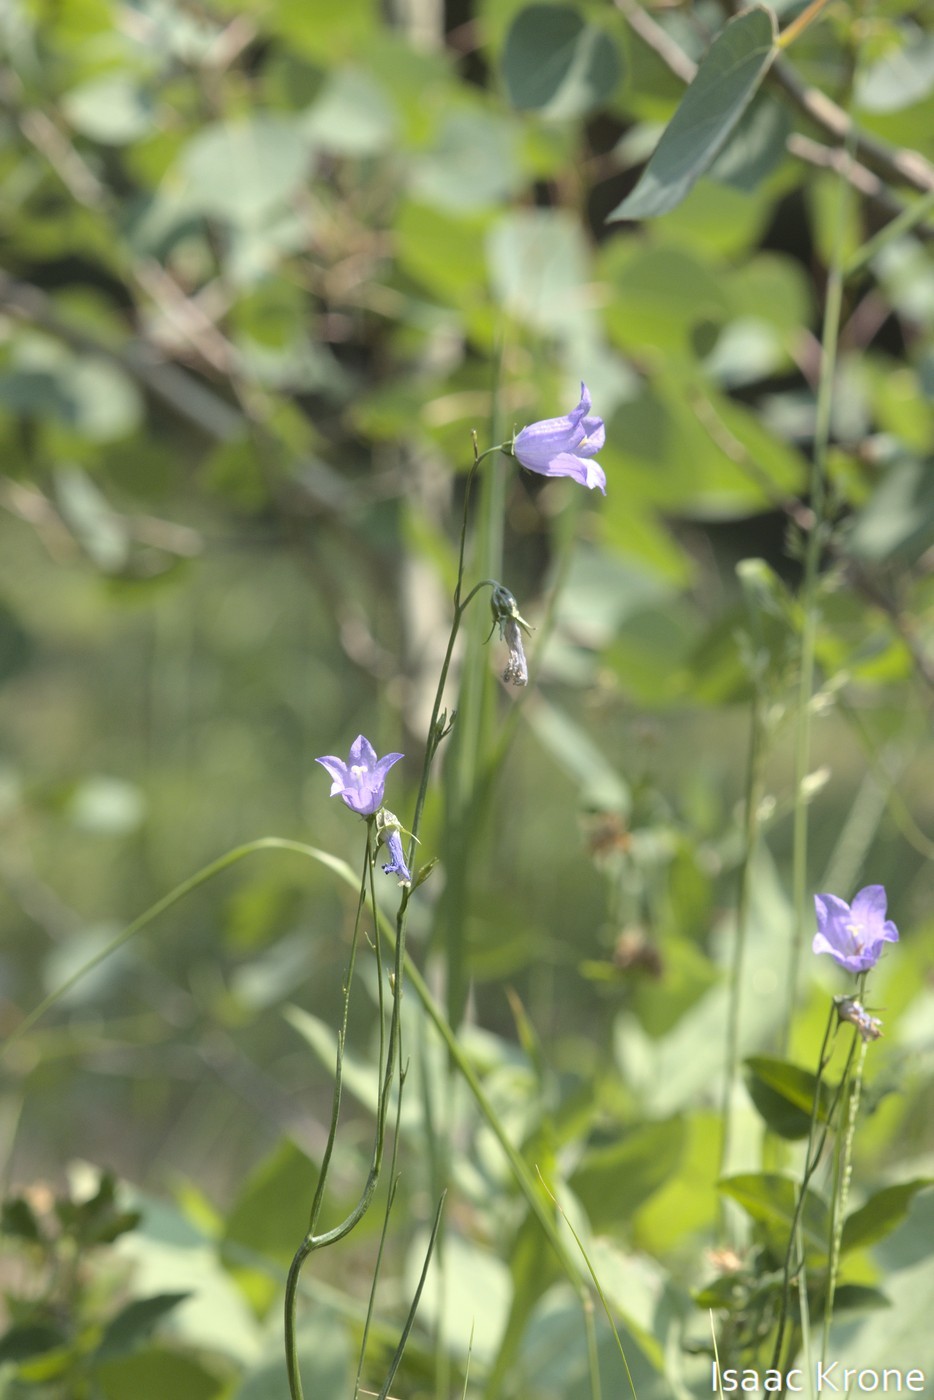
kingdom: Plantae
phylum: Tracheophyta
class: Magnoliopsida
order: Asterales
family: Campanulaceae
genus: Campanula
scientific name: Campanula
